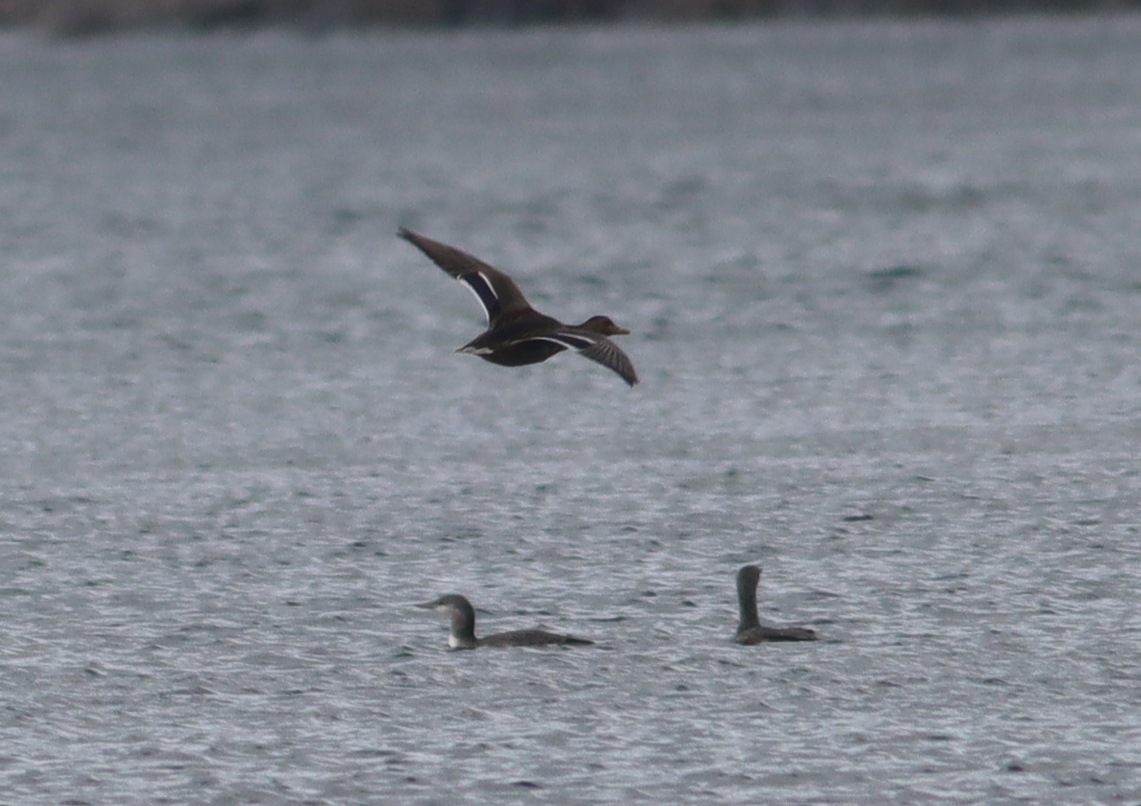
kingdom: Animalia
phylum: Chordata
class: Aves
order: Gaviiformes
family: Gaviidae
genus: Gavia
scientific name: Gavia arctica
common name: Black-throated loon
